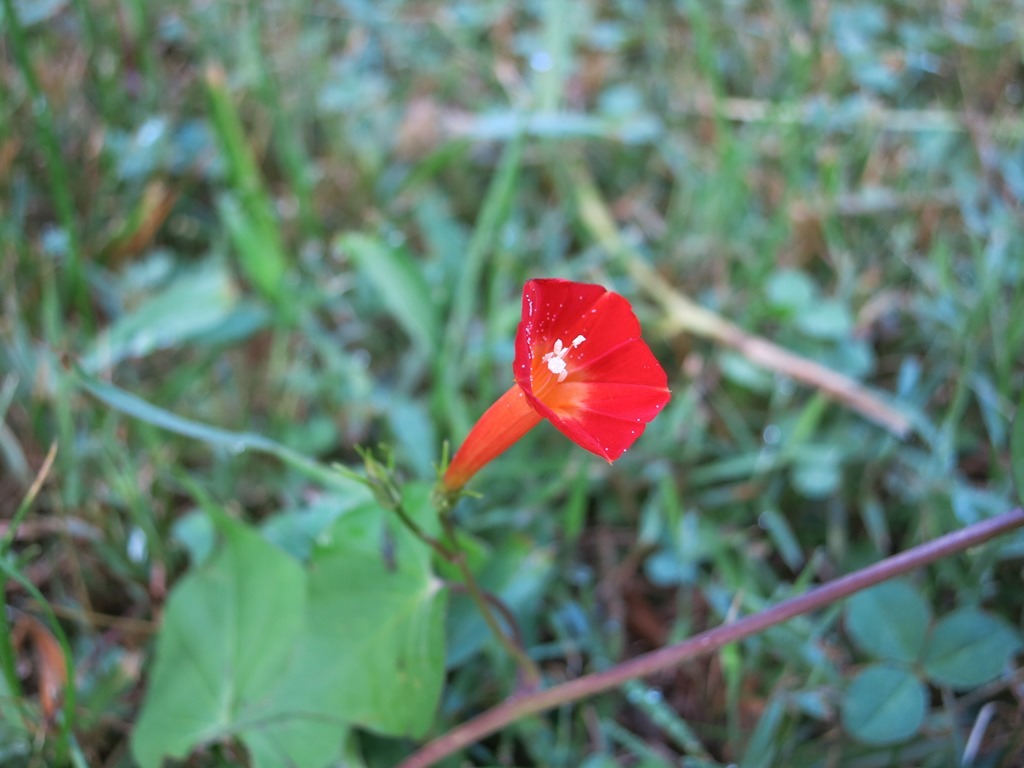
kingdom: Plantae
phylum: Tracheophyta
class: Magnoliopsida
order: Solanales
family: Convolvulaceae
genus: Ipomoea
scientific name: Ipomoea coccinea
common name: Red morning-glory
